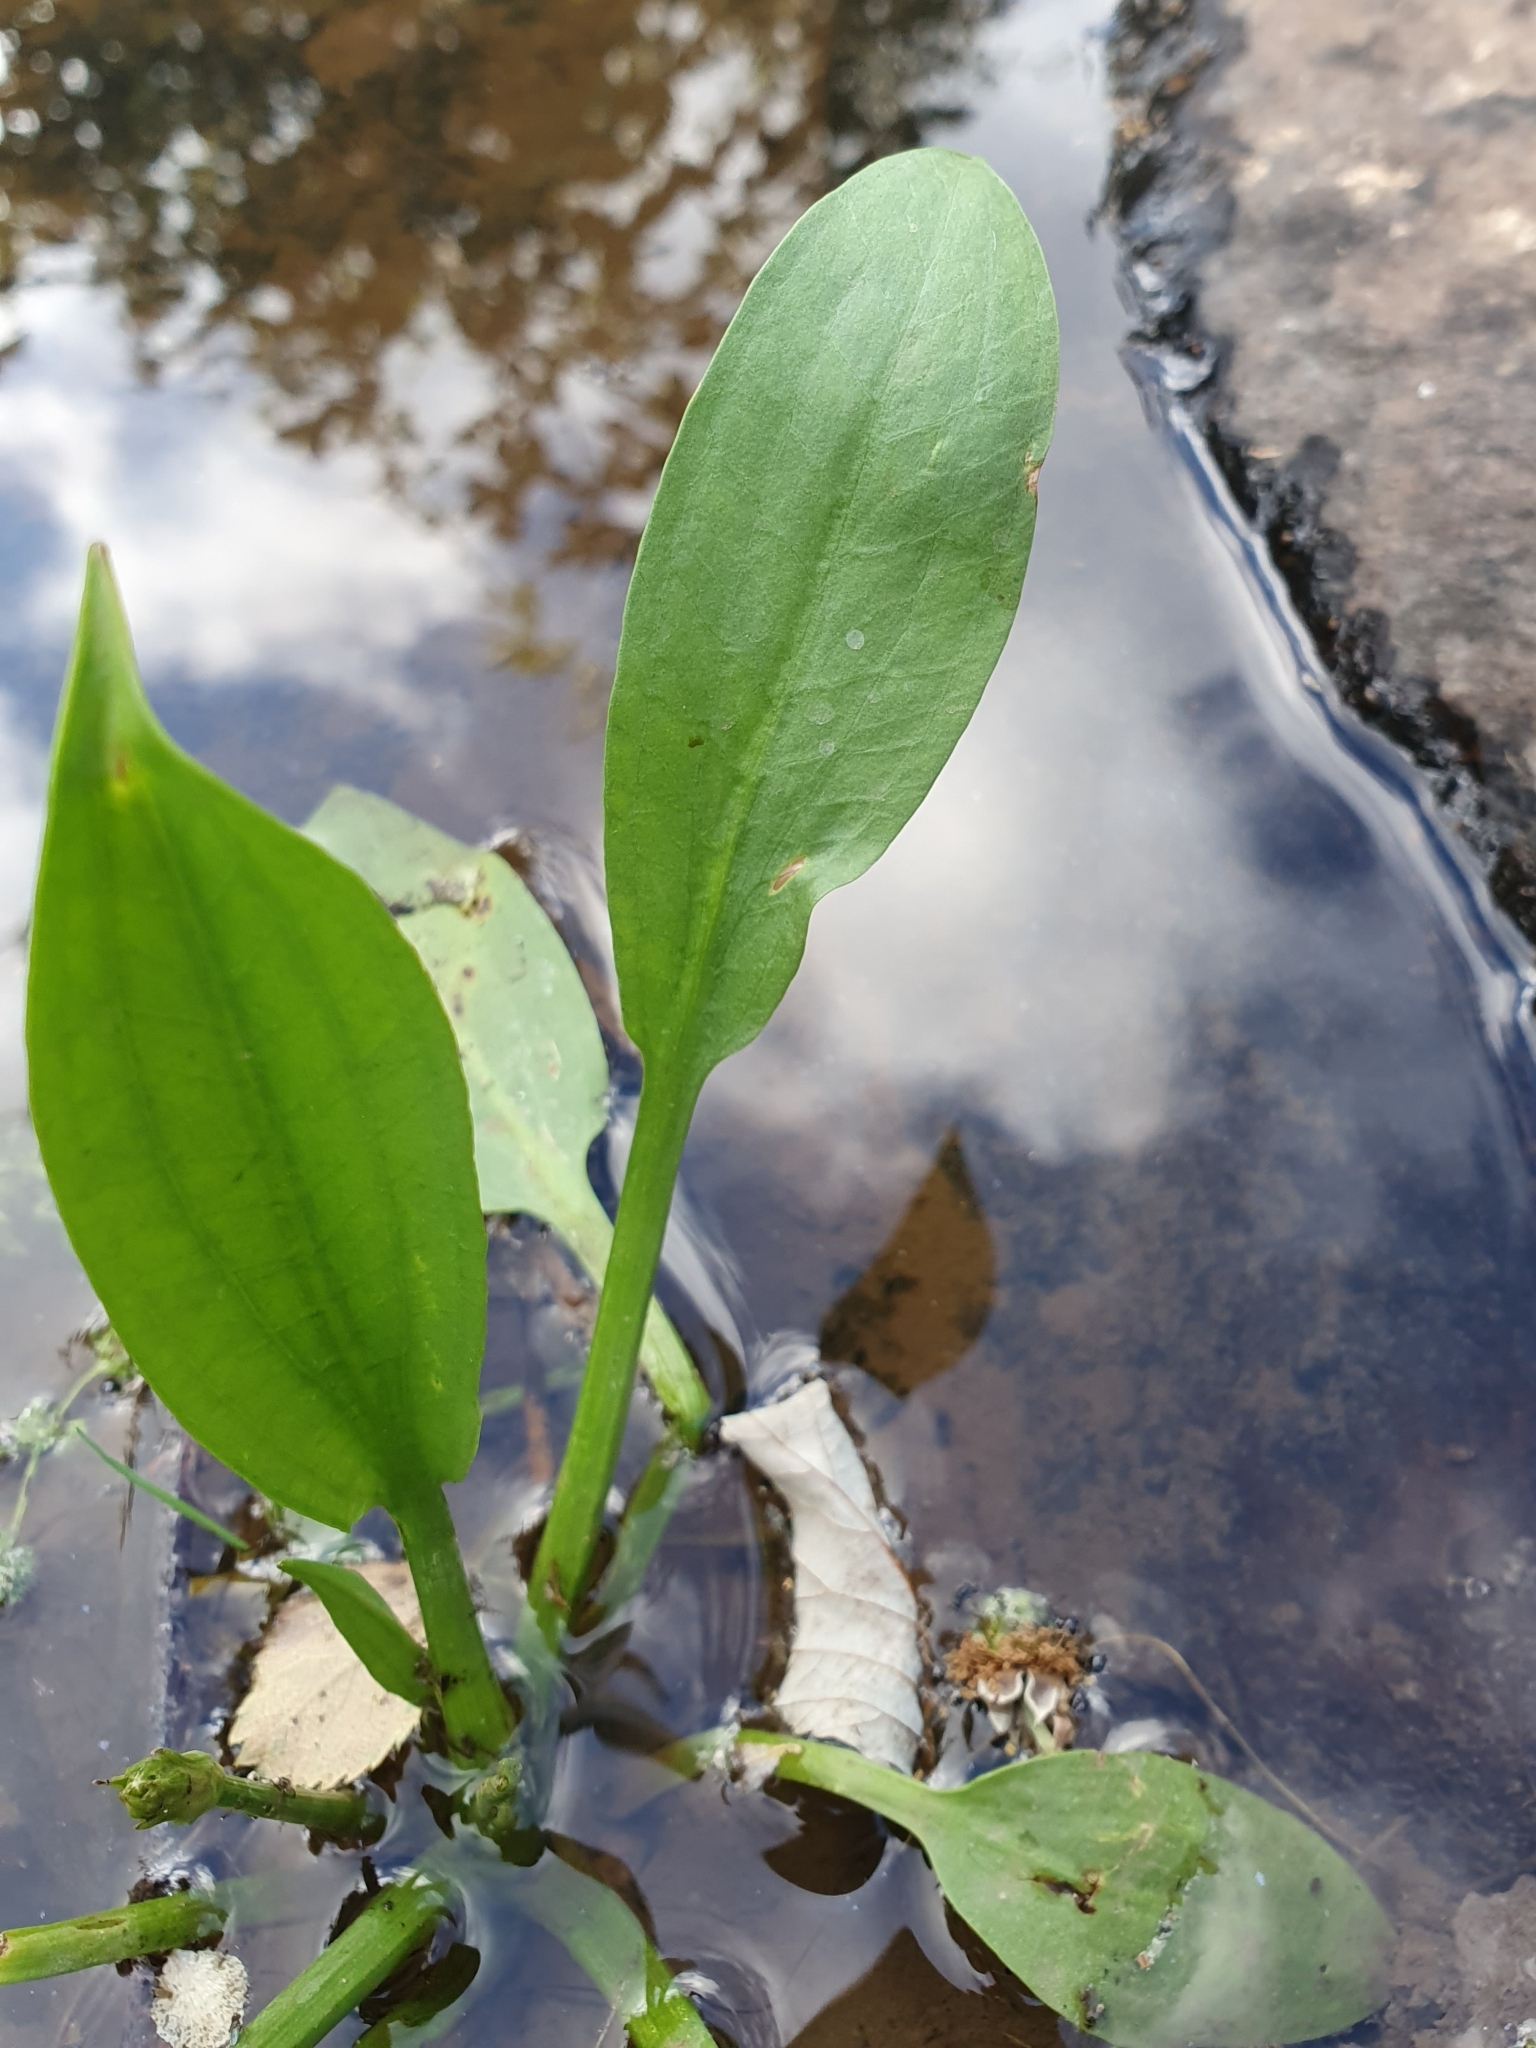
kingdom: Plantae
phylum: Tracheophyta
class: Liliopsida
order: Alismatales
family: Alismataceae
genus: Alisma
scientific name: Alisma plantago-aquatica
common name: Water-plantain
